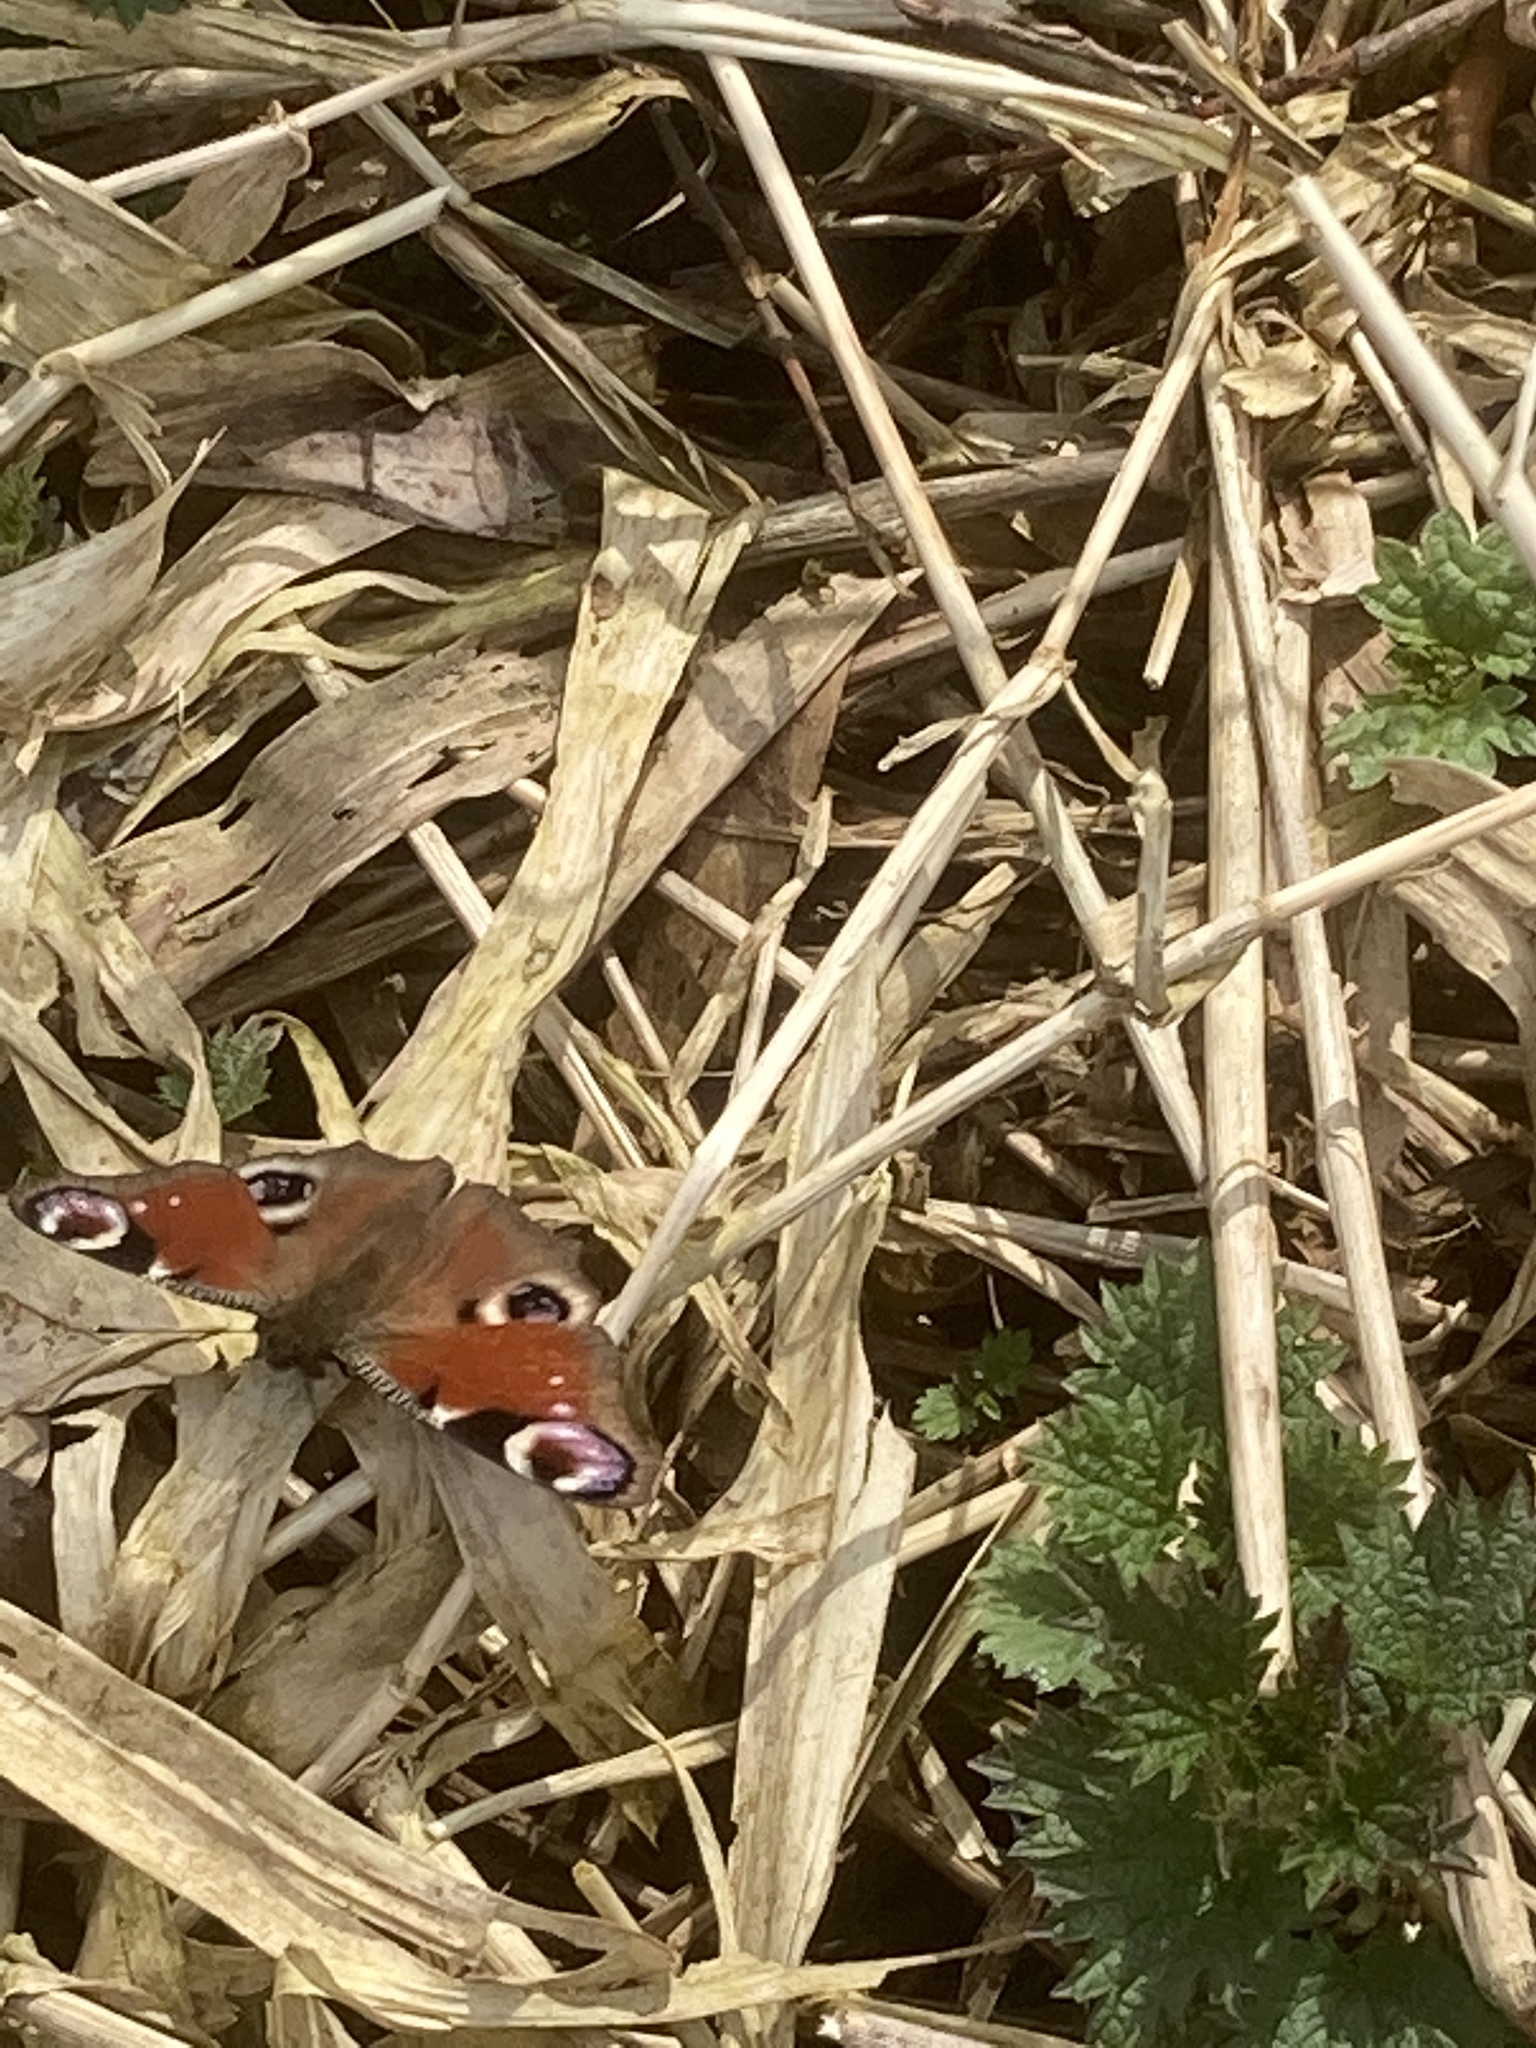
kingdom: Animalia
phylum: Arthropoda
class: Insecta
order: Lepidoptera
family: Nymphalidae
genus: Aglais
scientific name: Aglais io
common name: Peacock
